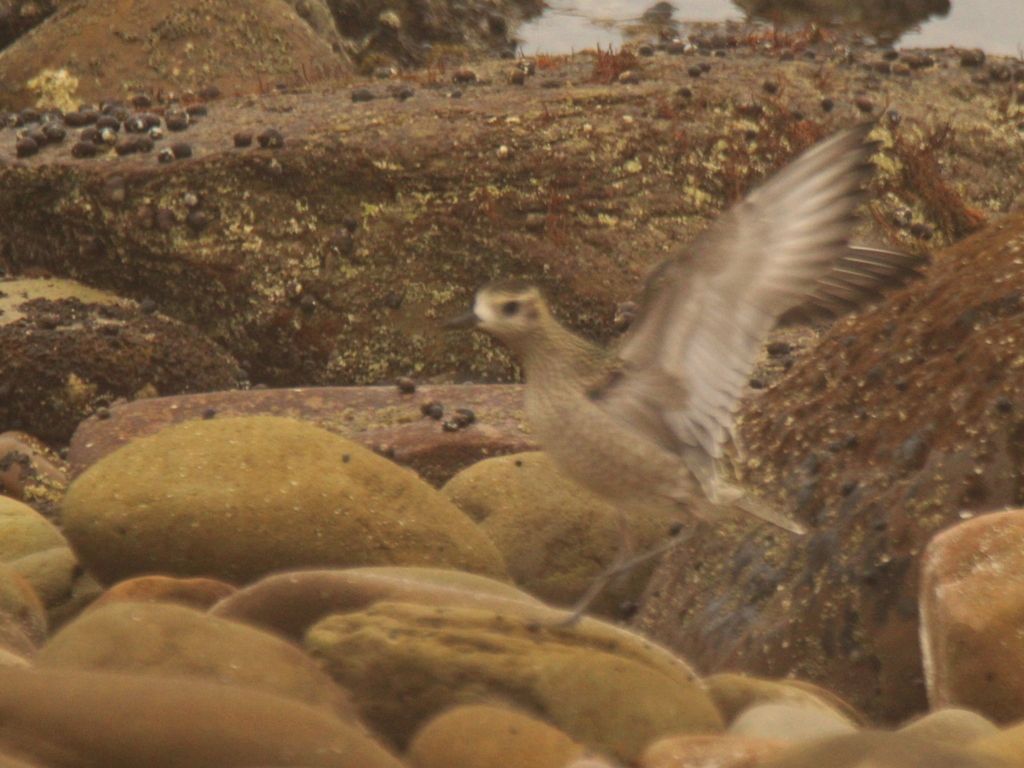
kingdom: Animalia
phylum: Chordata
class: Aves
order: Charadriiformes
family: Charadriidae
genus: Pluvialis
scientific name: Pluvialis fulva
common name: Pacific golden plover
